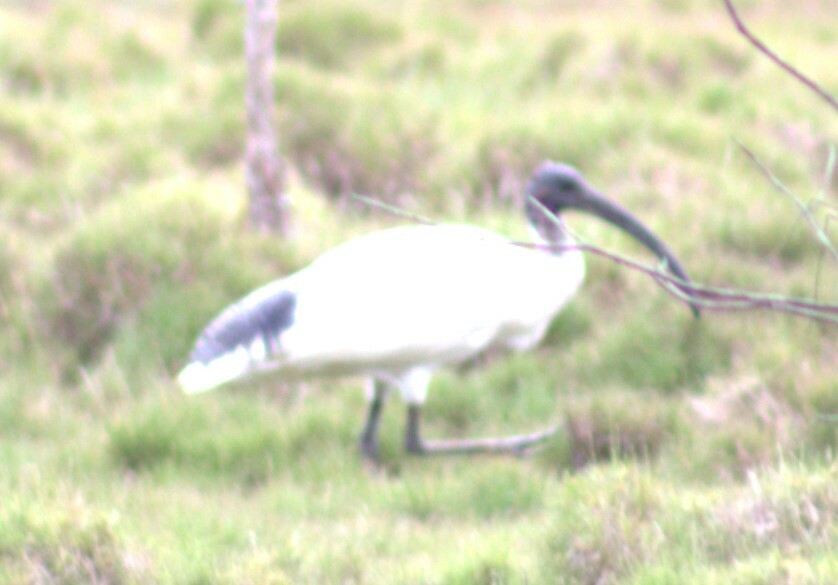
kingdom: Animalia
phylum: Chordata
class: Aves
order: Pelecaniformes
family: Threskiornithidae
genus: Threskiornis
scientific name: Threskiornis molucca
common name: Australian white ibis
